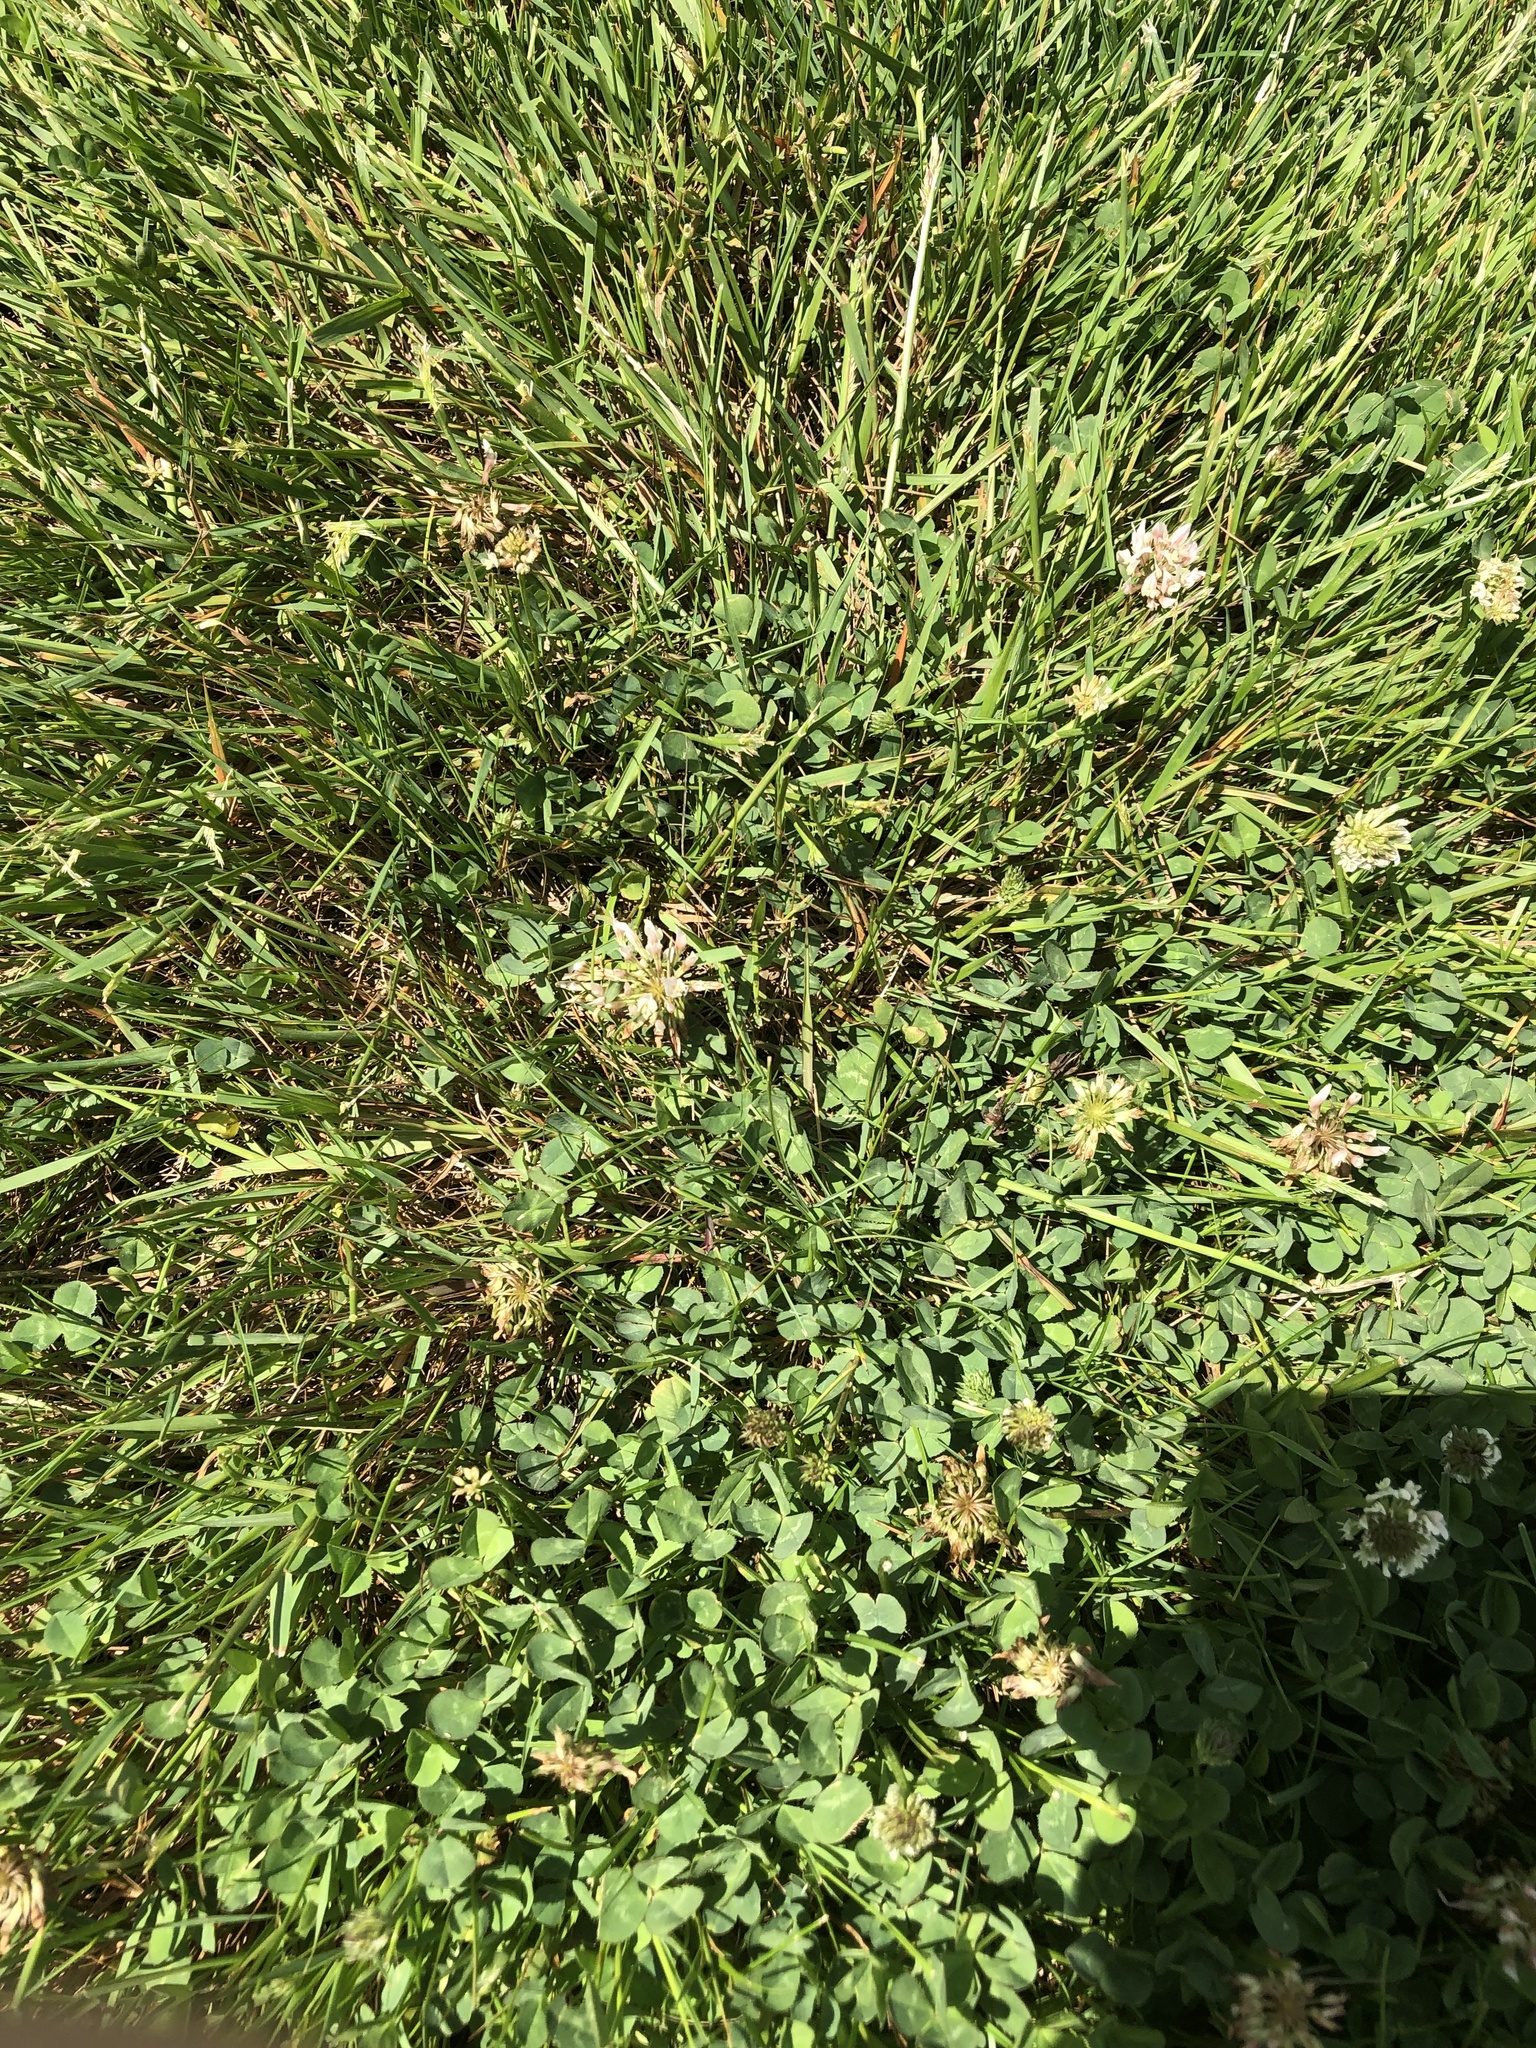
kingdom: Plantae
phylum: Tracheophyta
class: Magnoliopsida
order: Fabales
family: Fabaceae
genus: Trifolium
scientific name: Trifolium repens
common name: White clover
